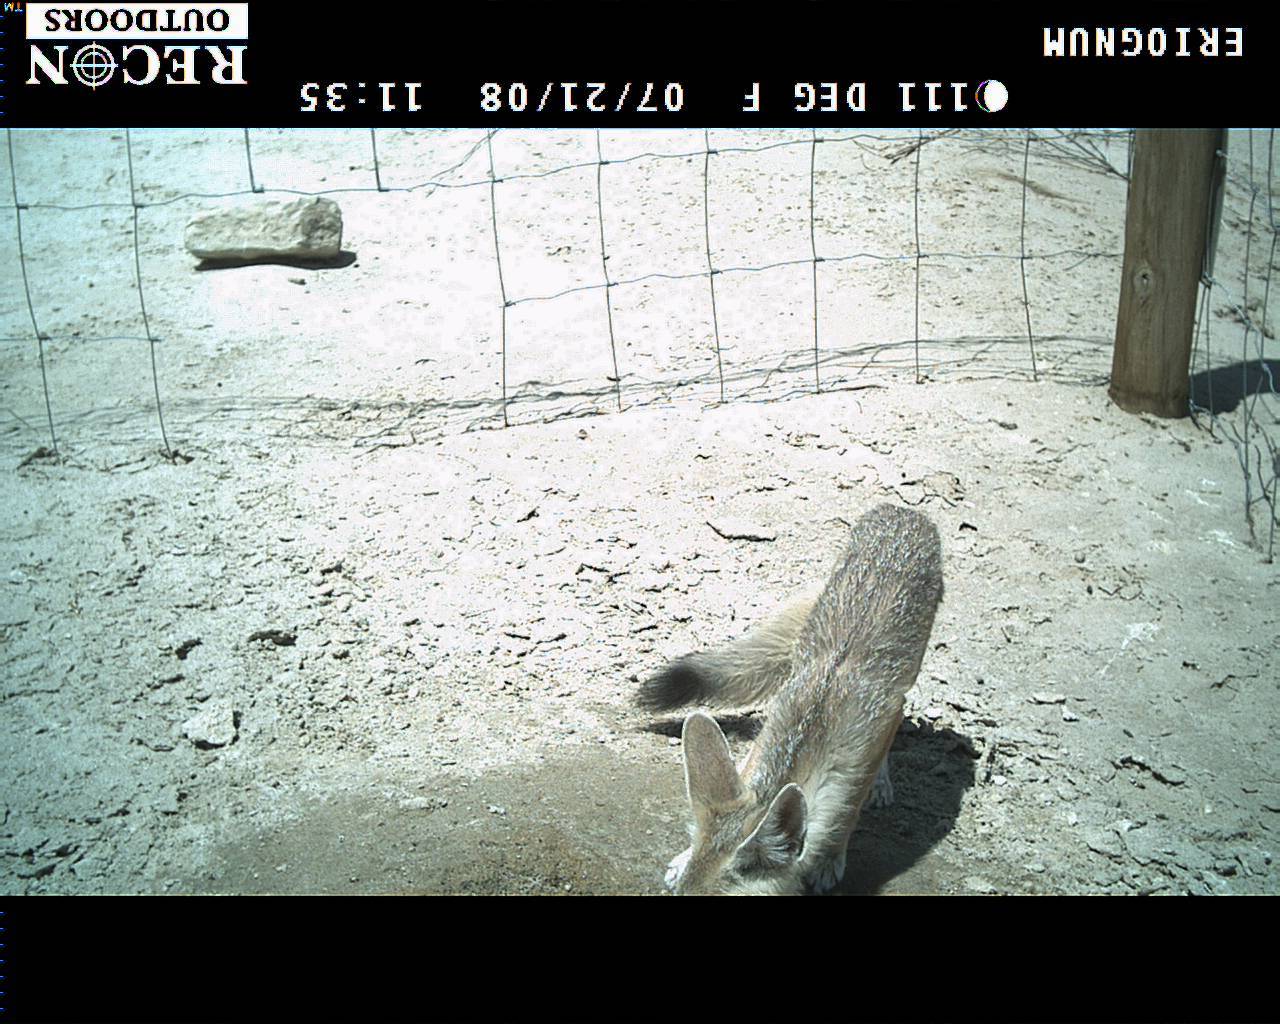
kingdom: Animalia
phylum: Chordata
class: Mammalia
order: Carnivora
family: Canidae
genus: Vulpes
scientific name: Vulpes macrotis
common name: Kit fox
